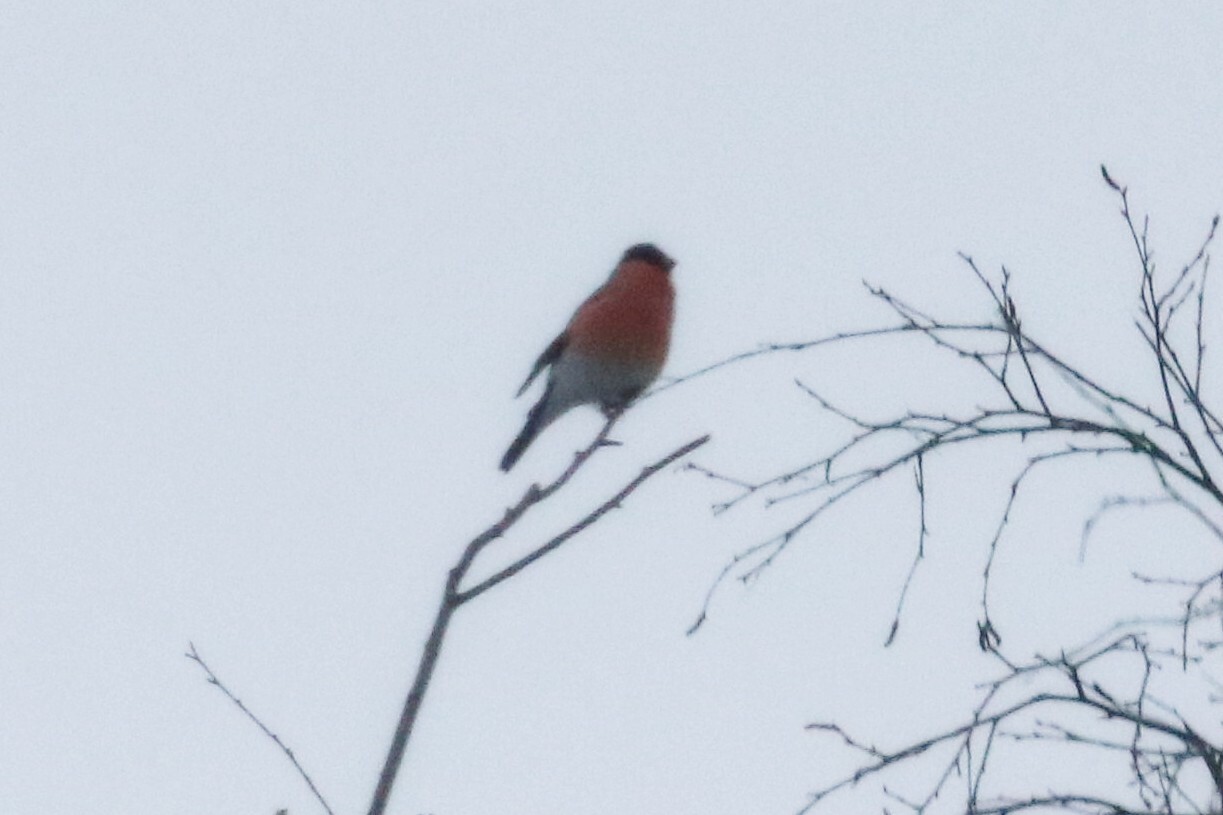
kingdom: Animalia
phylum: Chordata
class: Aves
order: Passeriformes
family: Fringillidae
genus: Pyrrhula
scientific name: Pyrrhula pyrrhula
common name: Eurasian bullfinch
